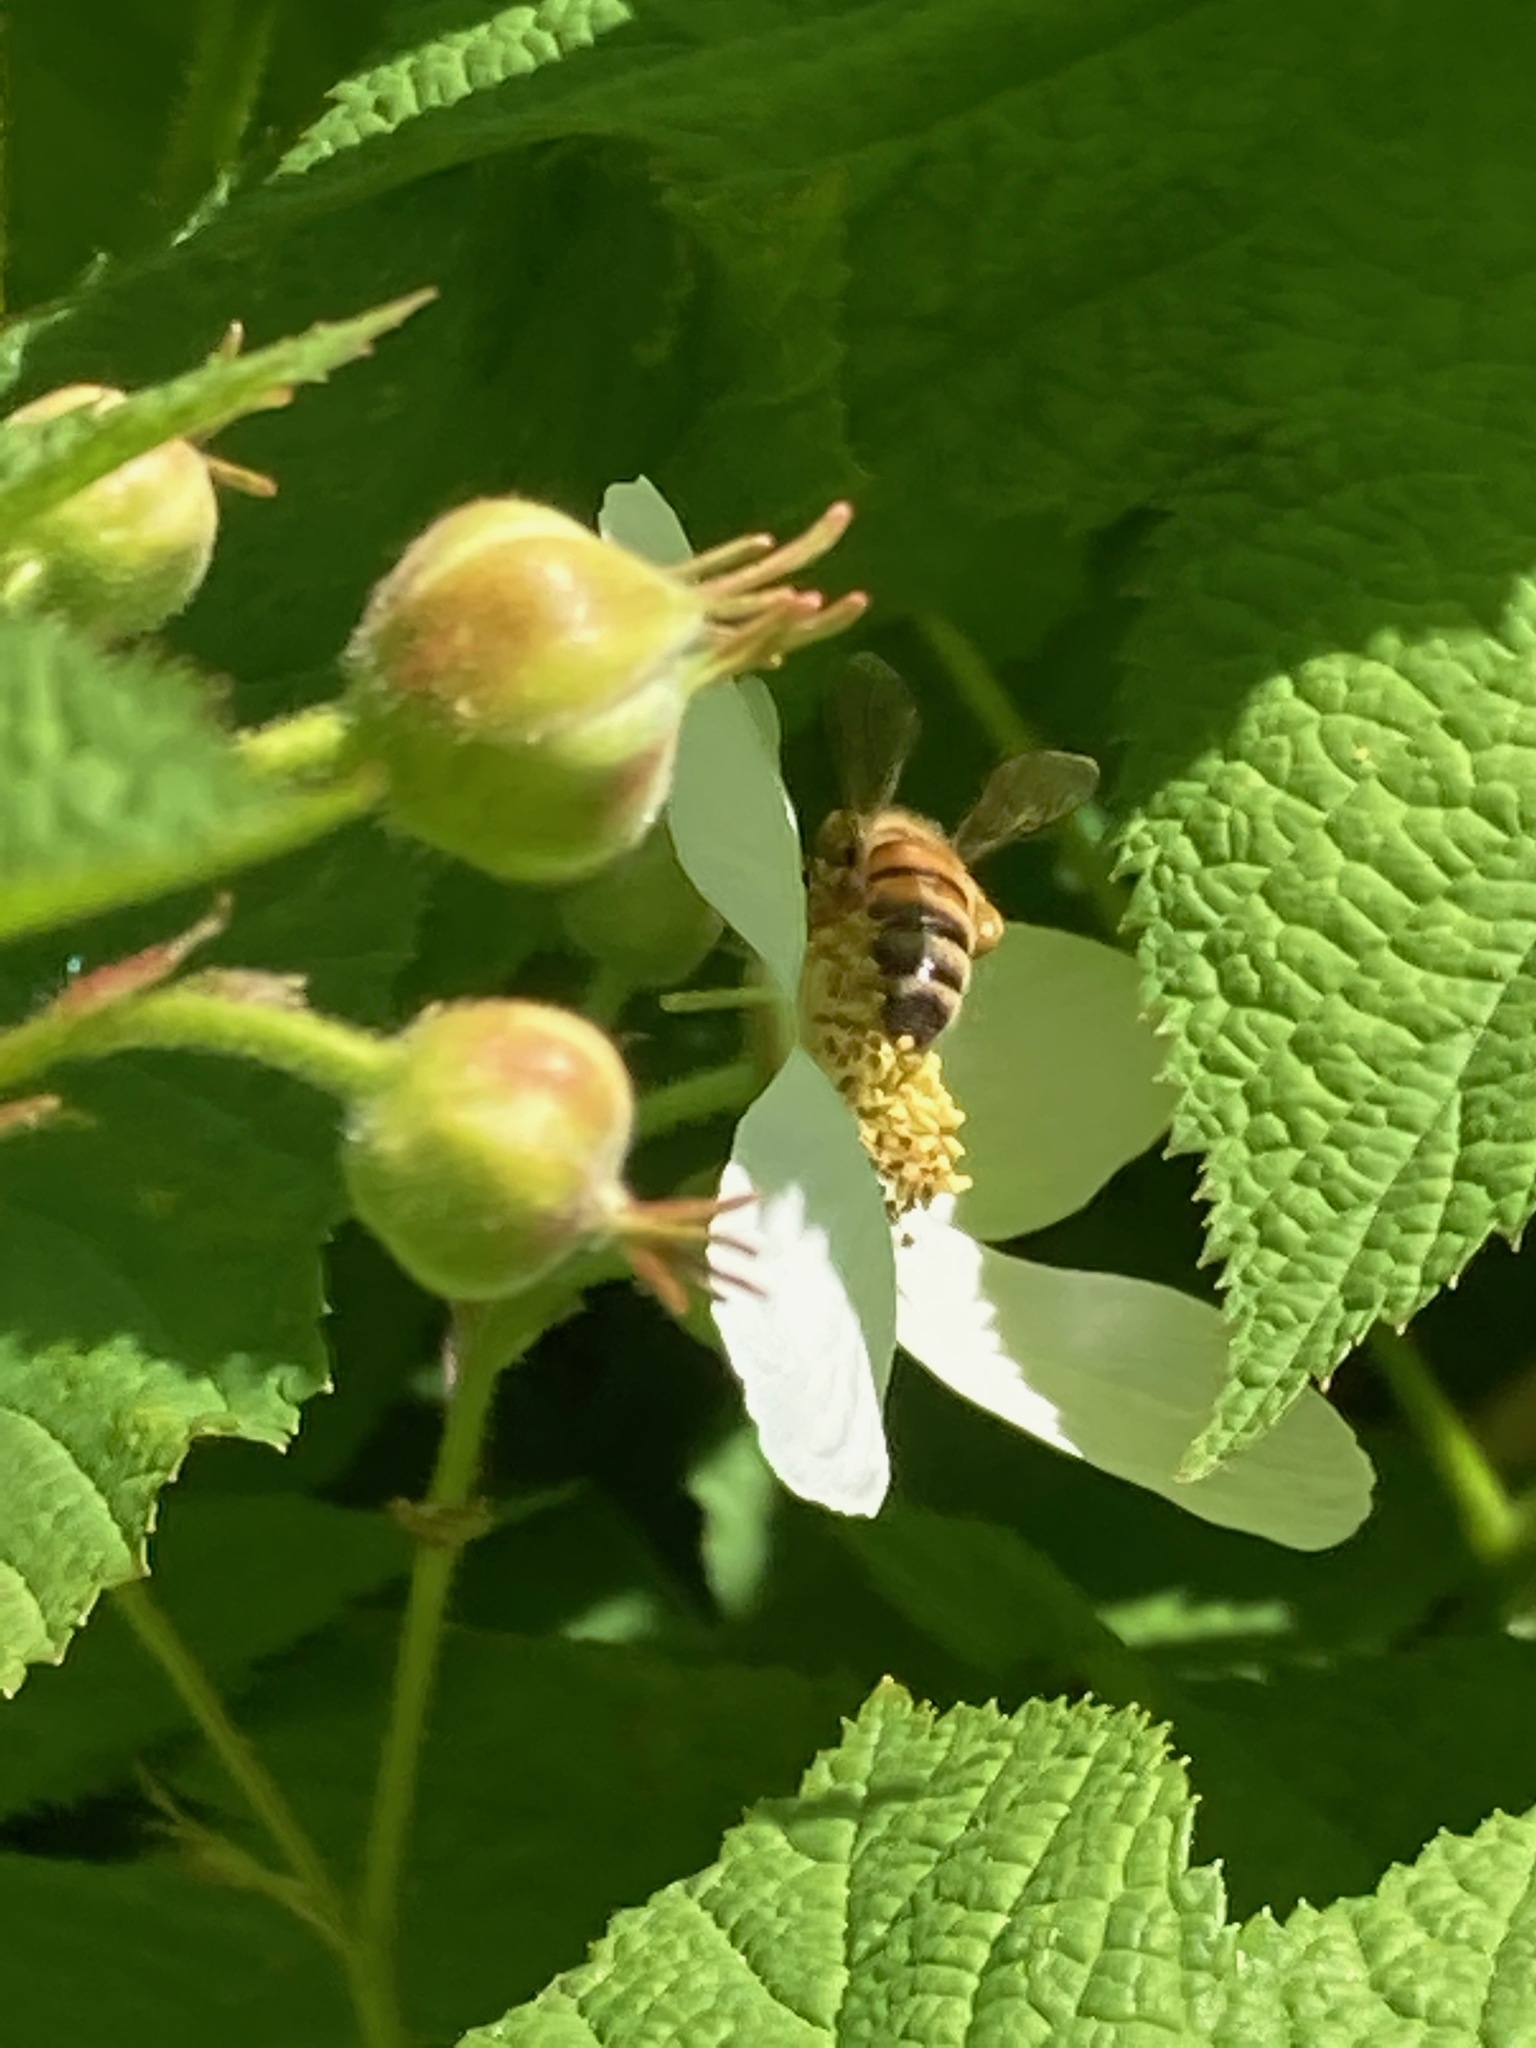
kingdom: Animalia
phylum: Arthropoda
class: Insecta
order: Hymenoptera
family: Apidae
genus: Apis
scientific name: Apis mellifera
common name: Honey bee
